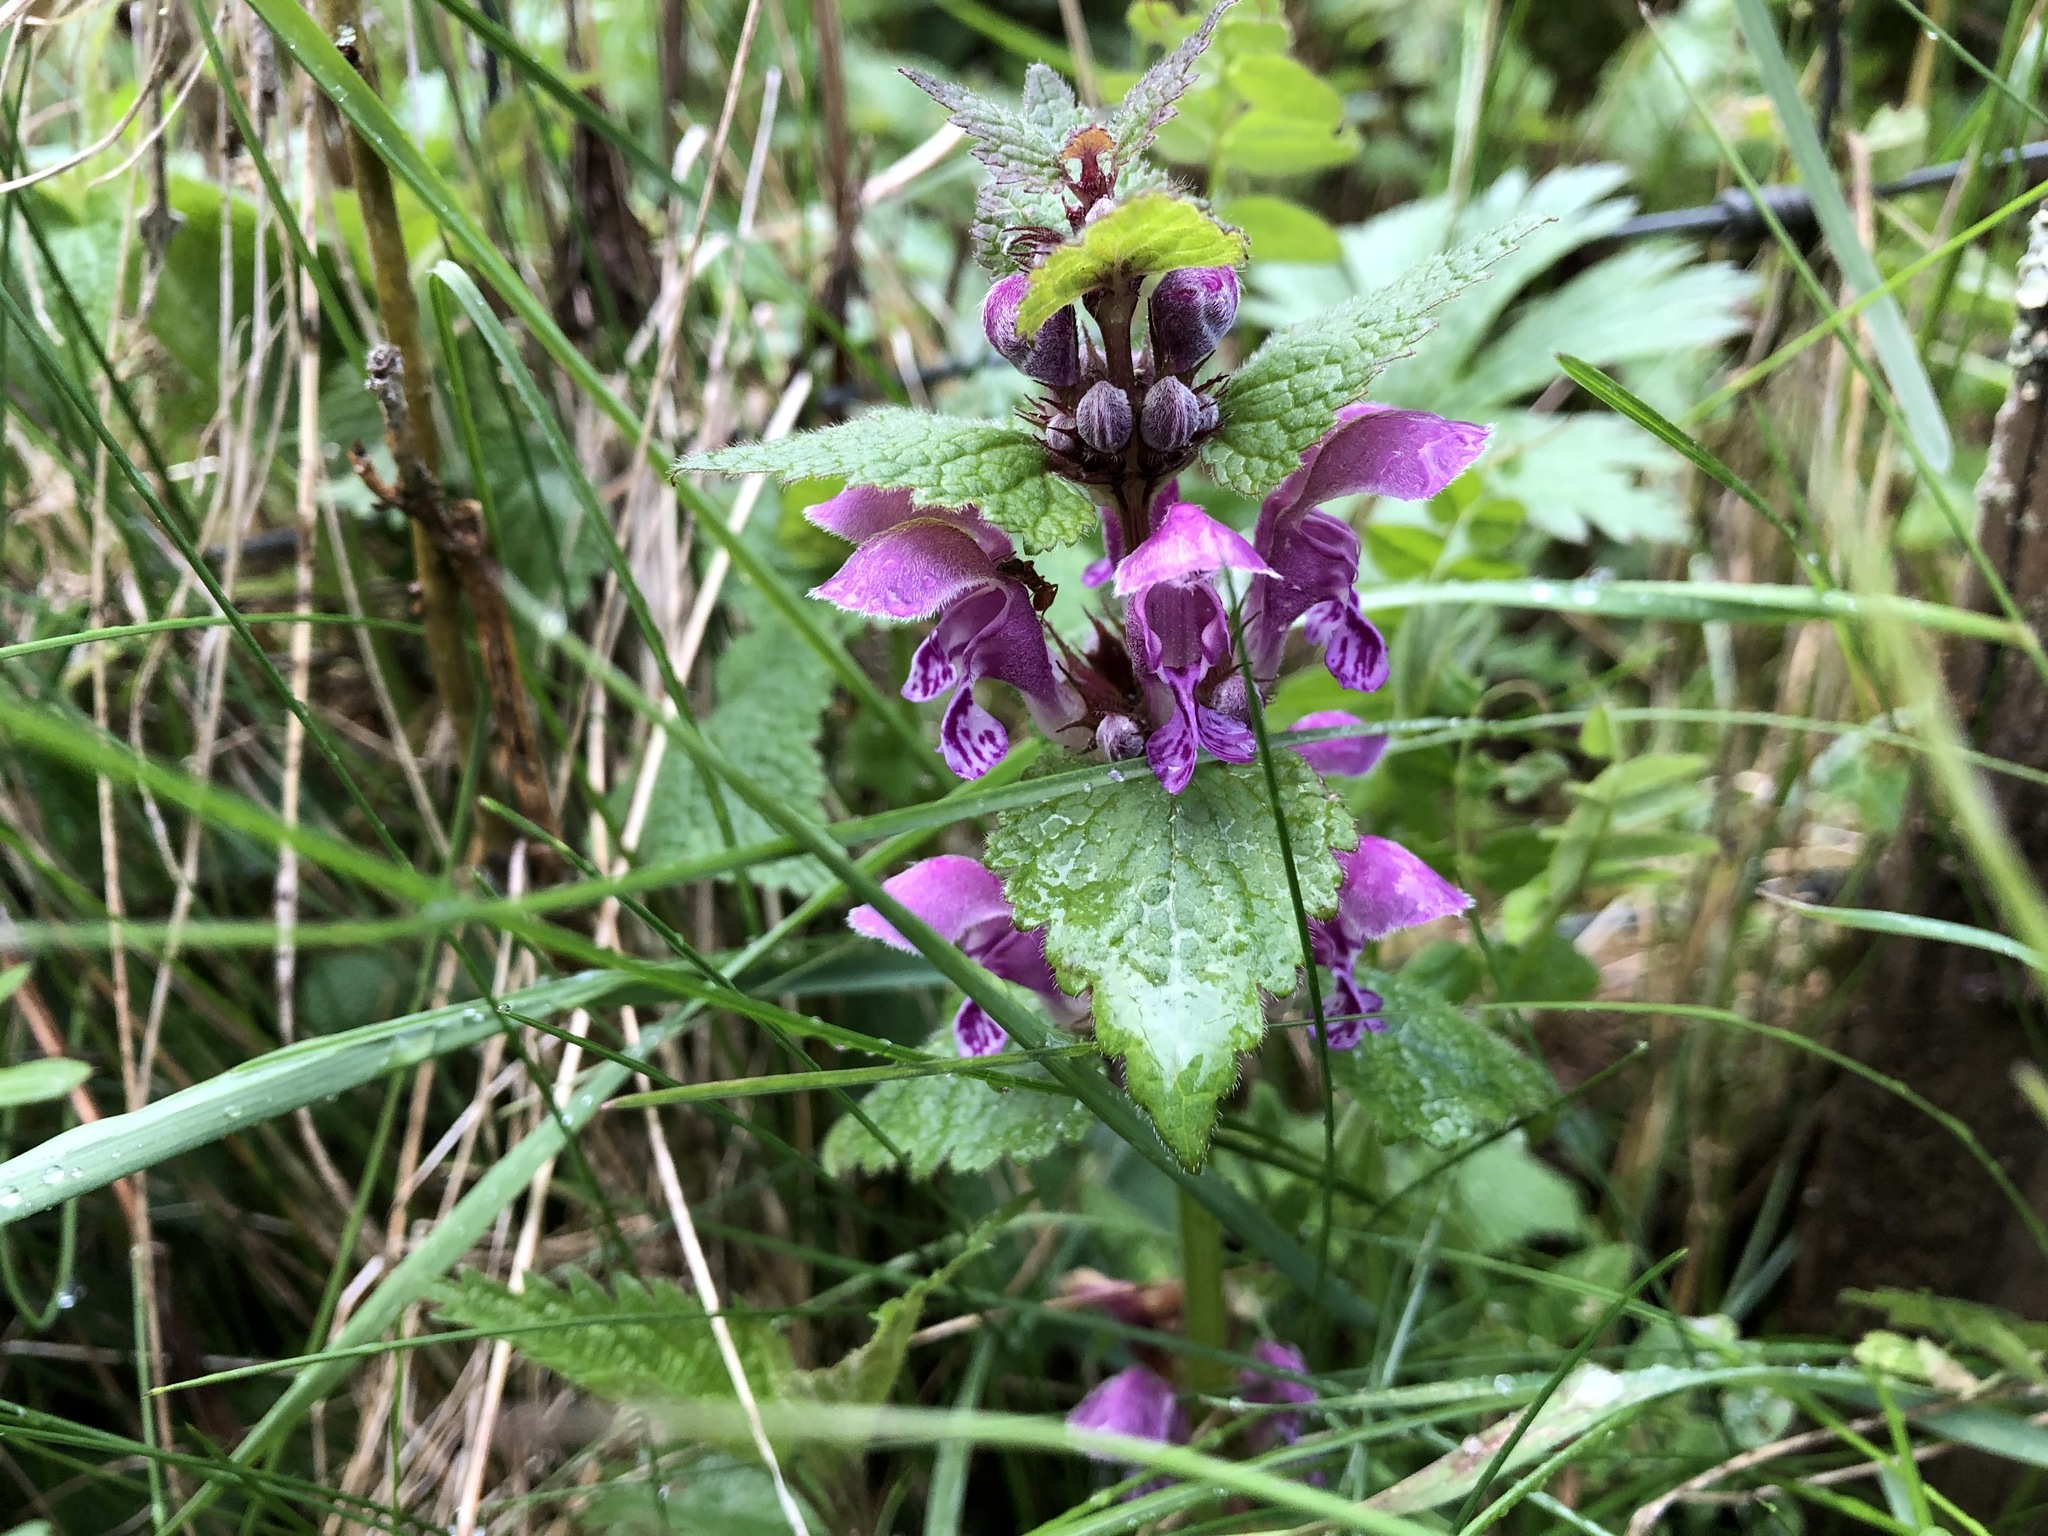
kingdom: Plantae
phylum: Tracheophyta
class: Magnoliopsida
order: Lamiales
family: Lamiaceae
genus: Lamium
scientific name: Lamium maculatum
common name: Spotted dead-nettle
